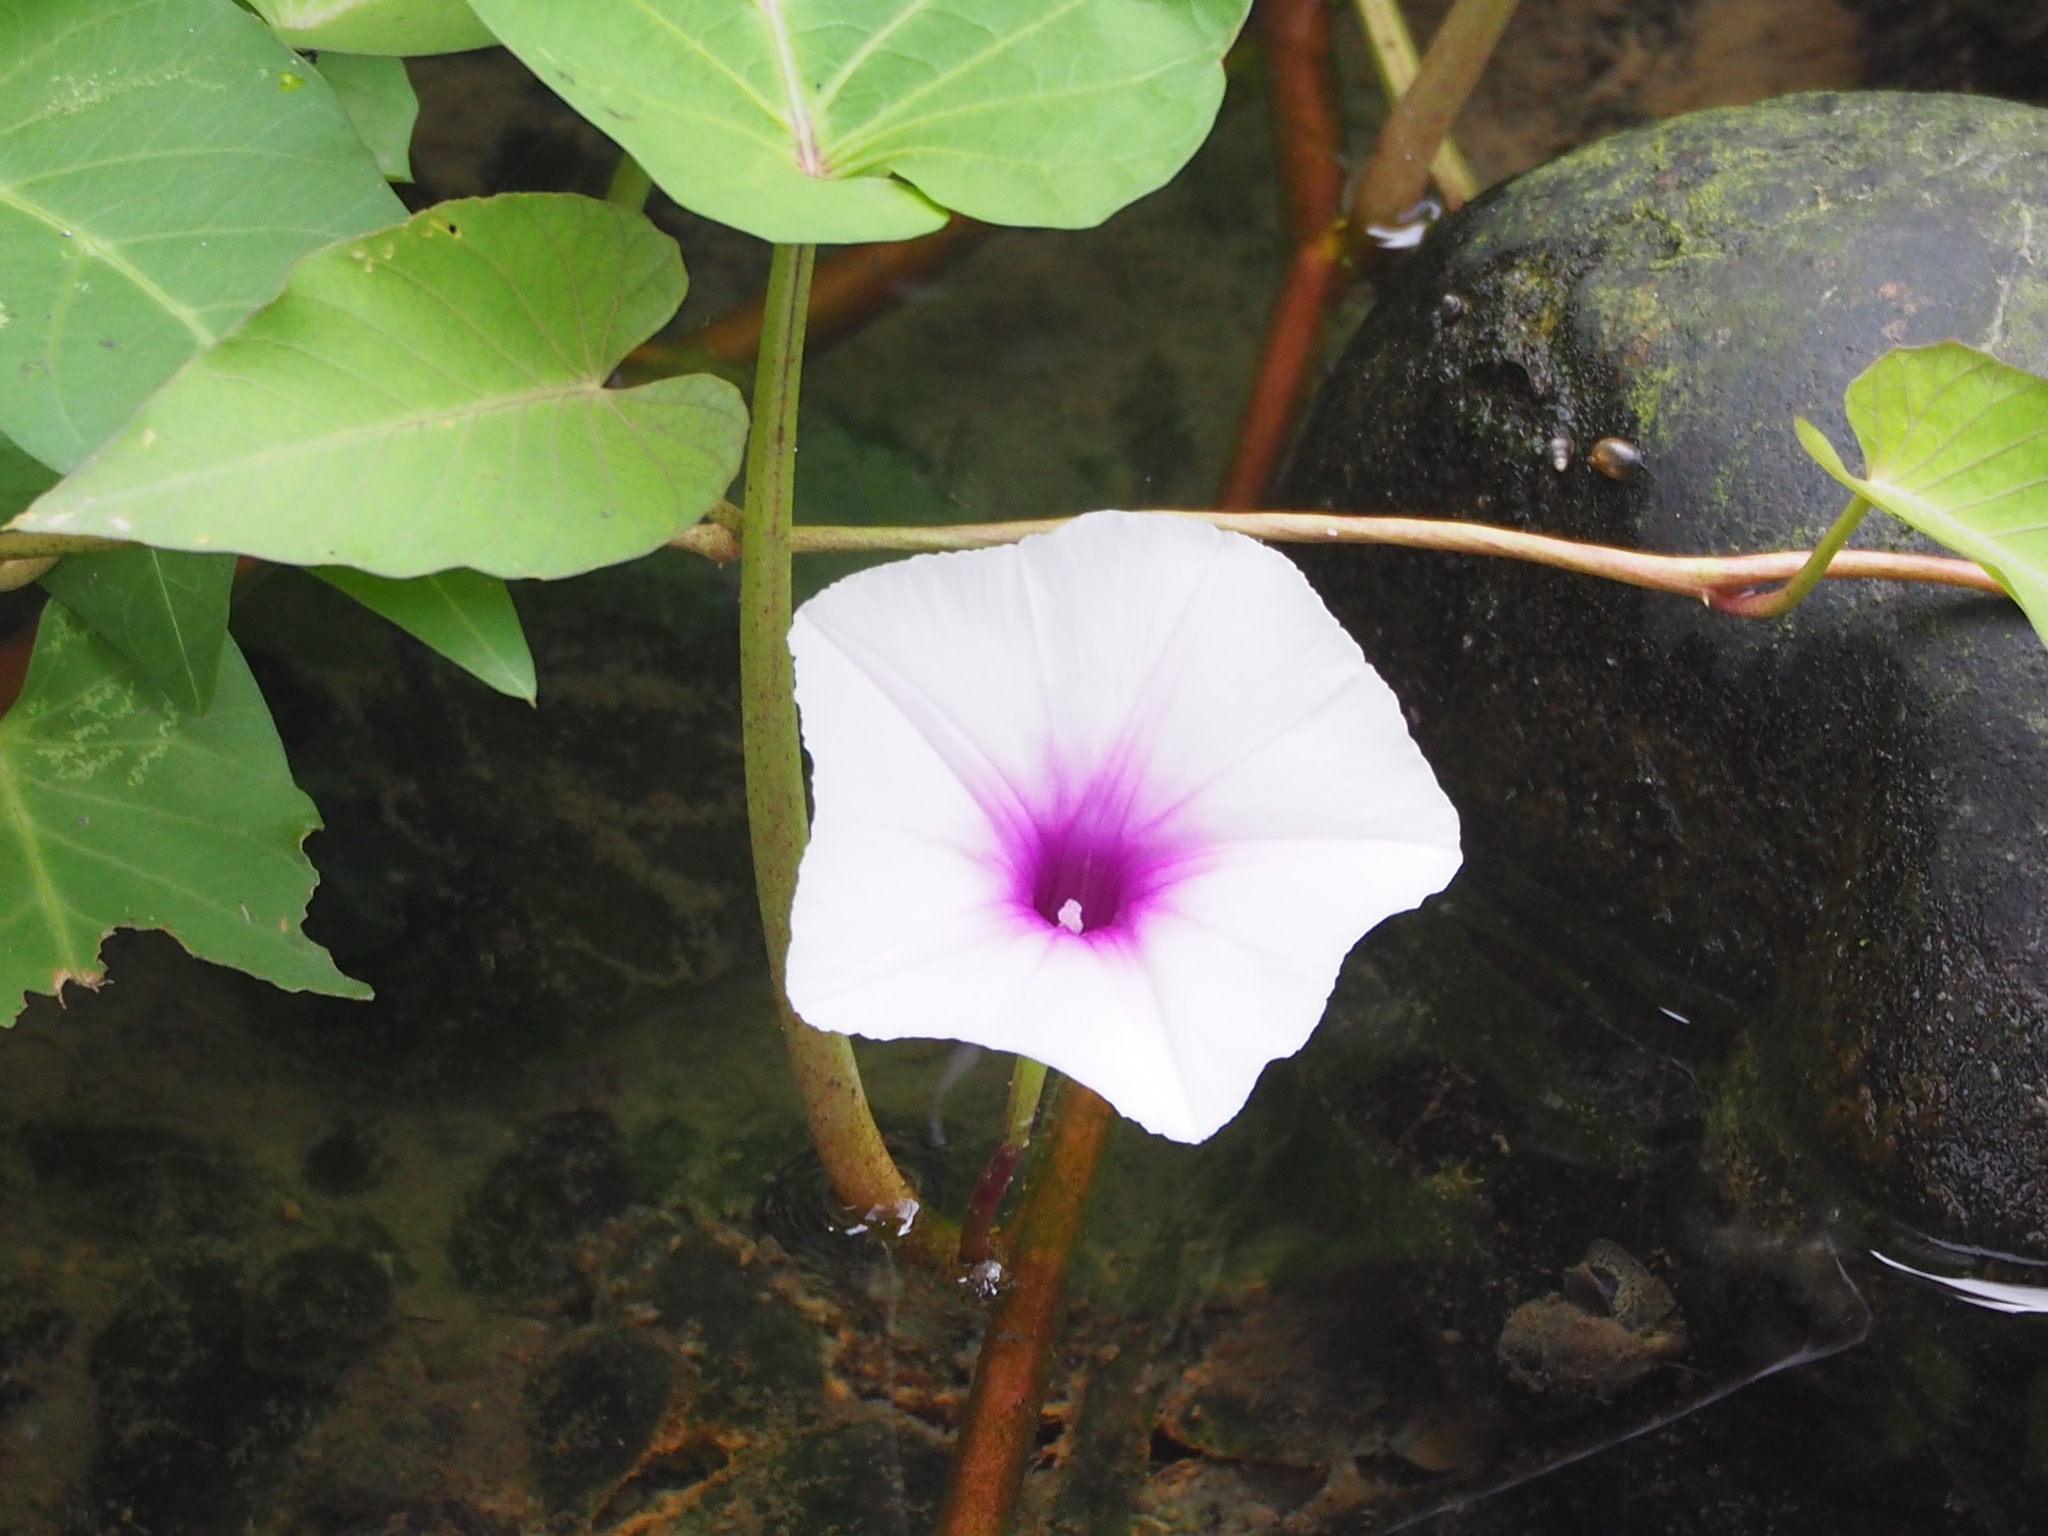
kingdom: Plantae
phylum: Tracheophyta
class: Magnoliopsida
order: Solanales
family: Convolvulaceae
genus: Ipomoea
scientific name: Ipomoea aquatica
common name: Swamp morning-glory
